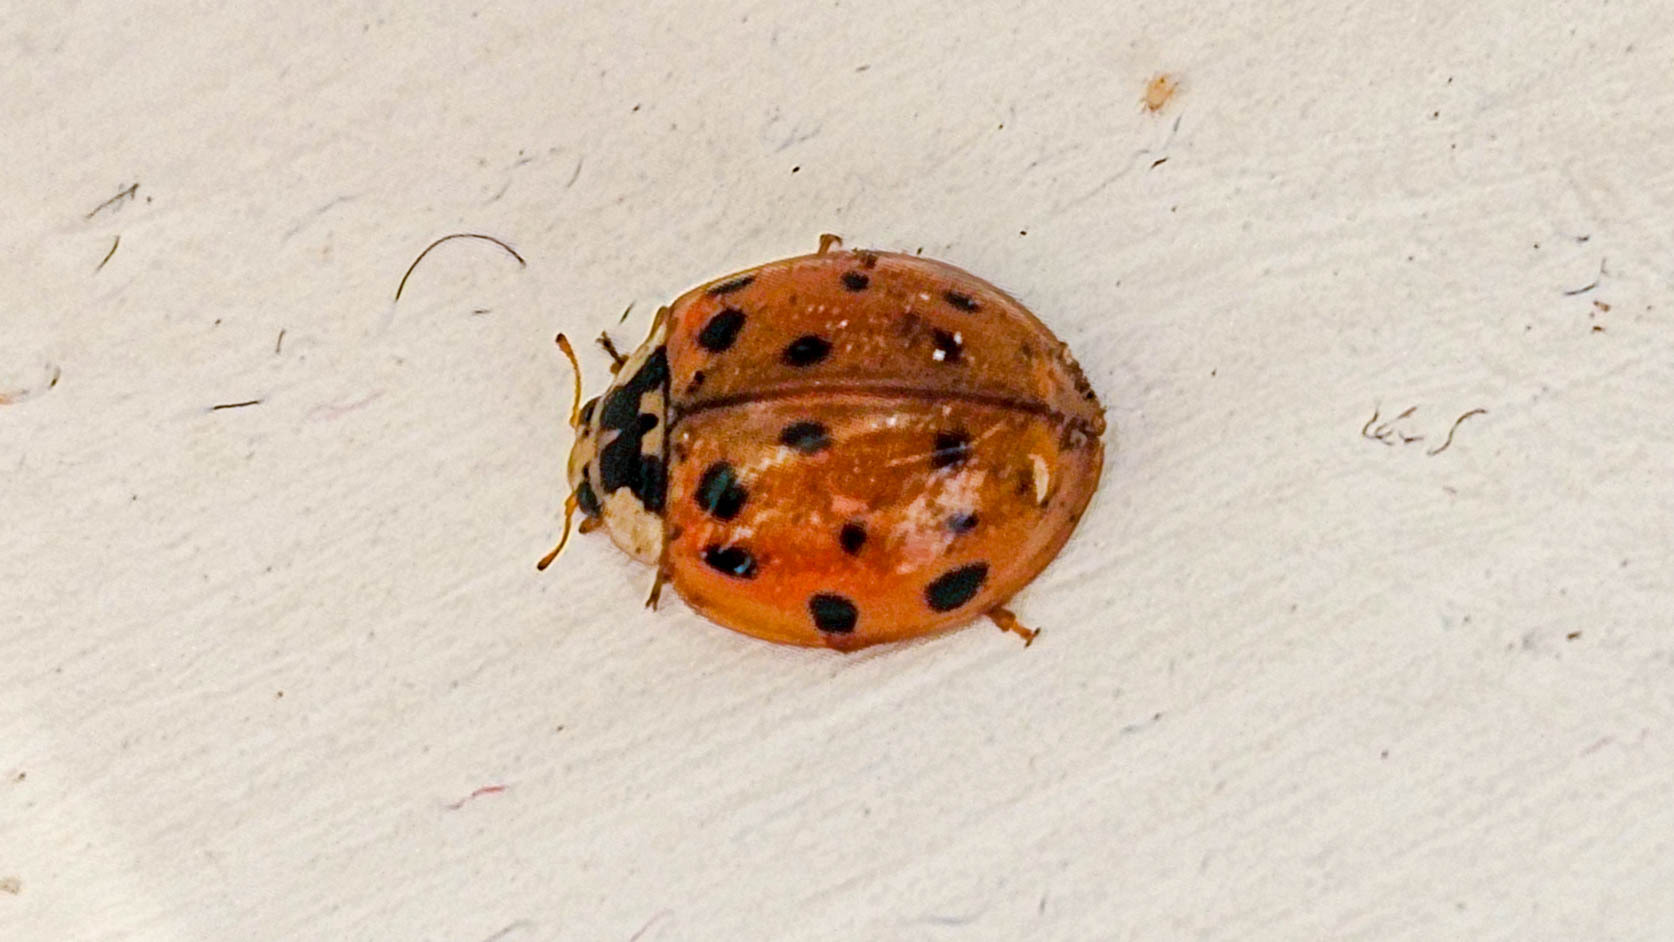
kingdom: Animalia
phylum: Arthropoda
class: Insecta
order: Coleoptera
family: Coccinellidae
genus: Harmonia
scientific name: Harmonia axyridis
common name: Harlequin ladybird
